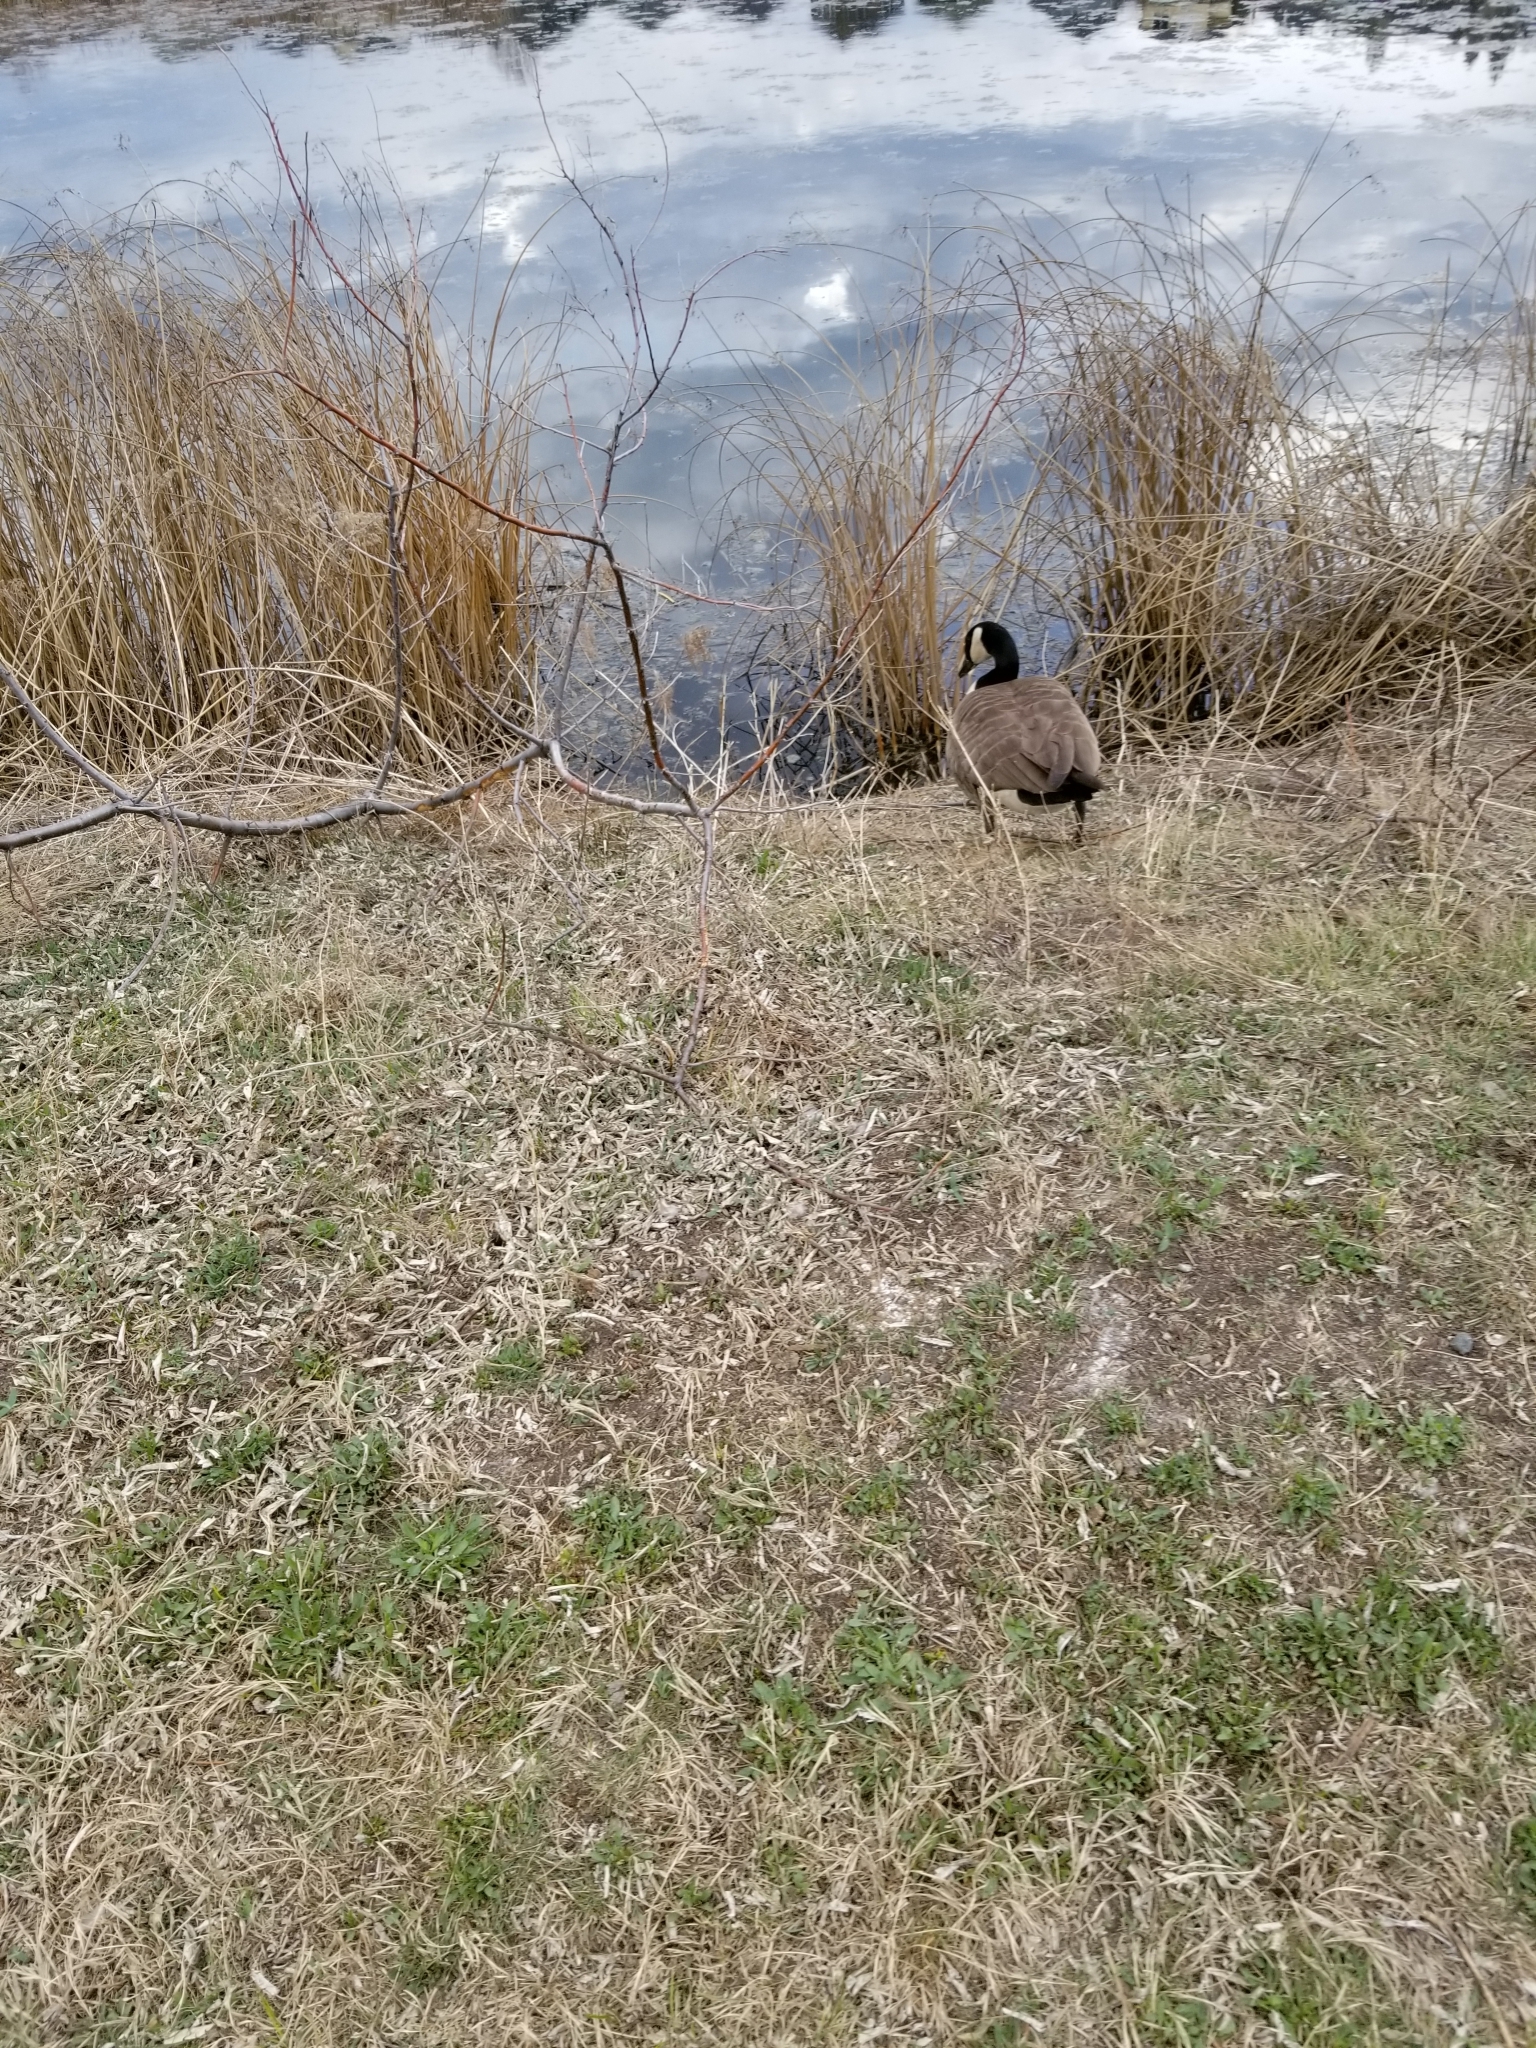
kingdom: Animalia
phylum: Chordata
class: Aves
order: Anseriformes
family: Anatidae
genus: Branta
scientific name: Branta canadensis
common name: Canada goose
